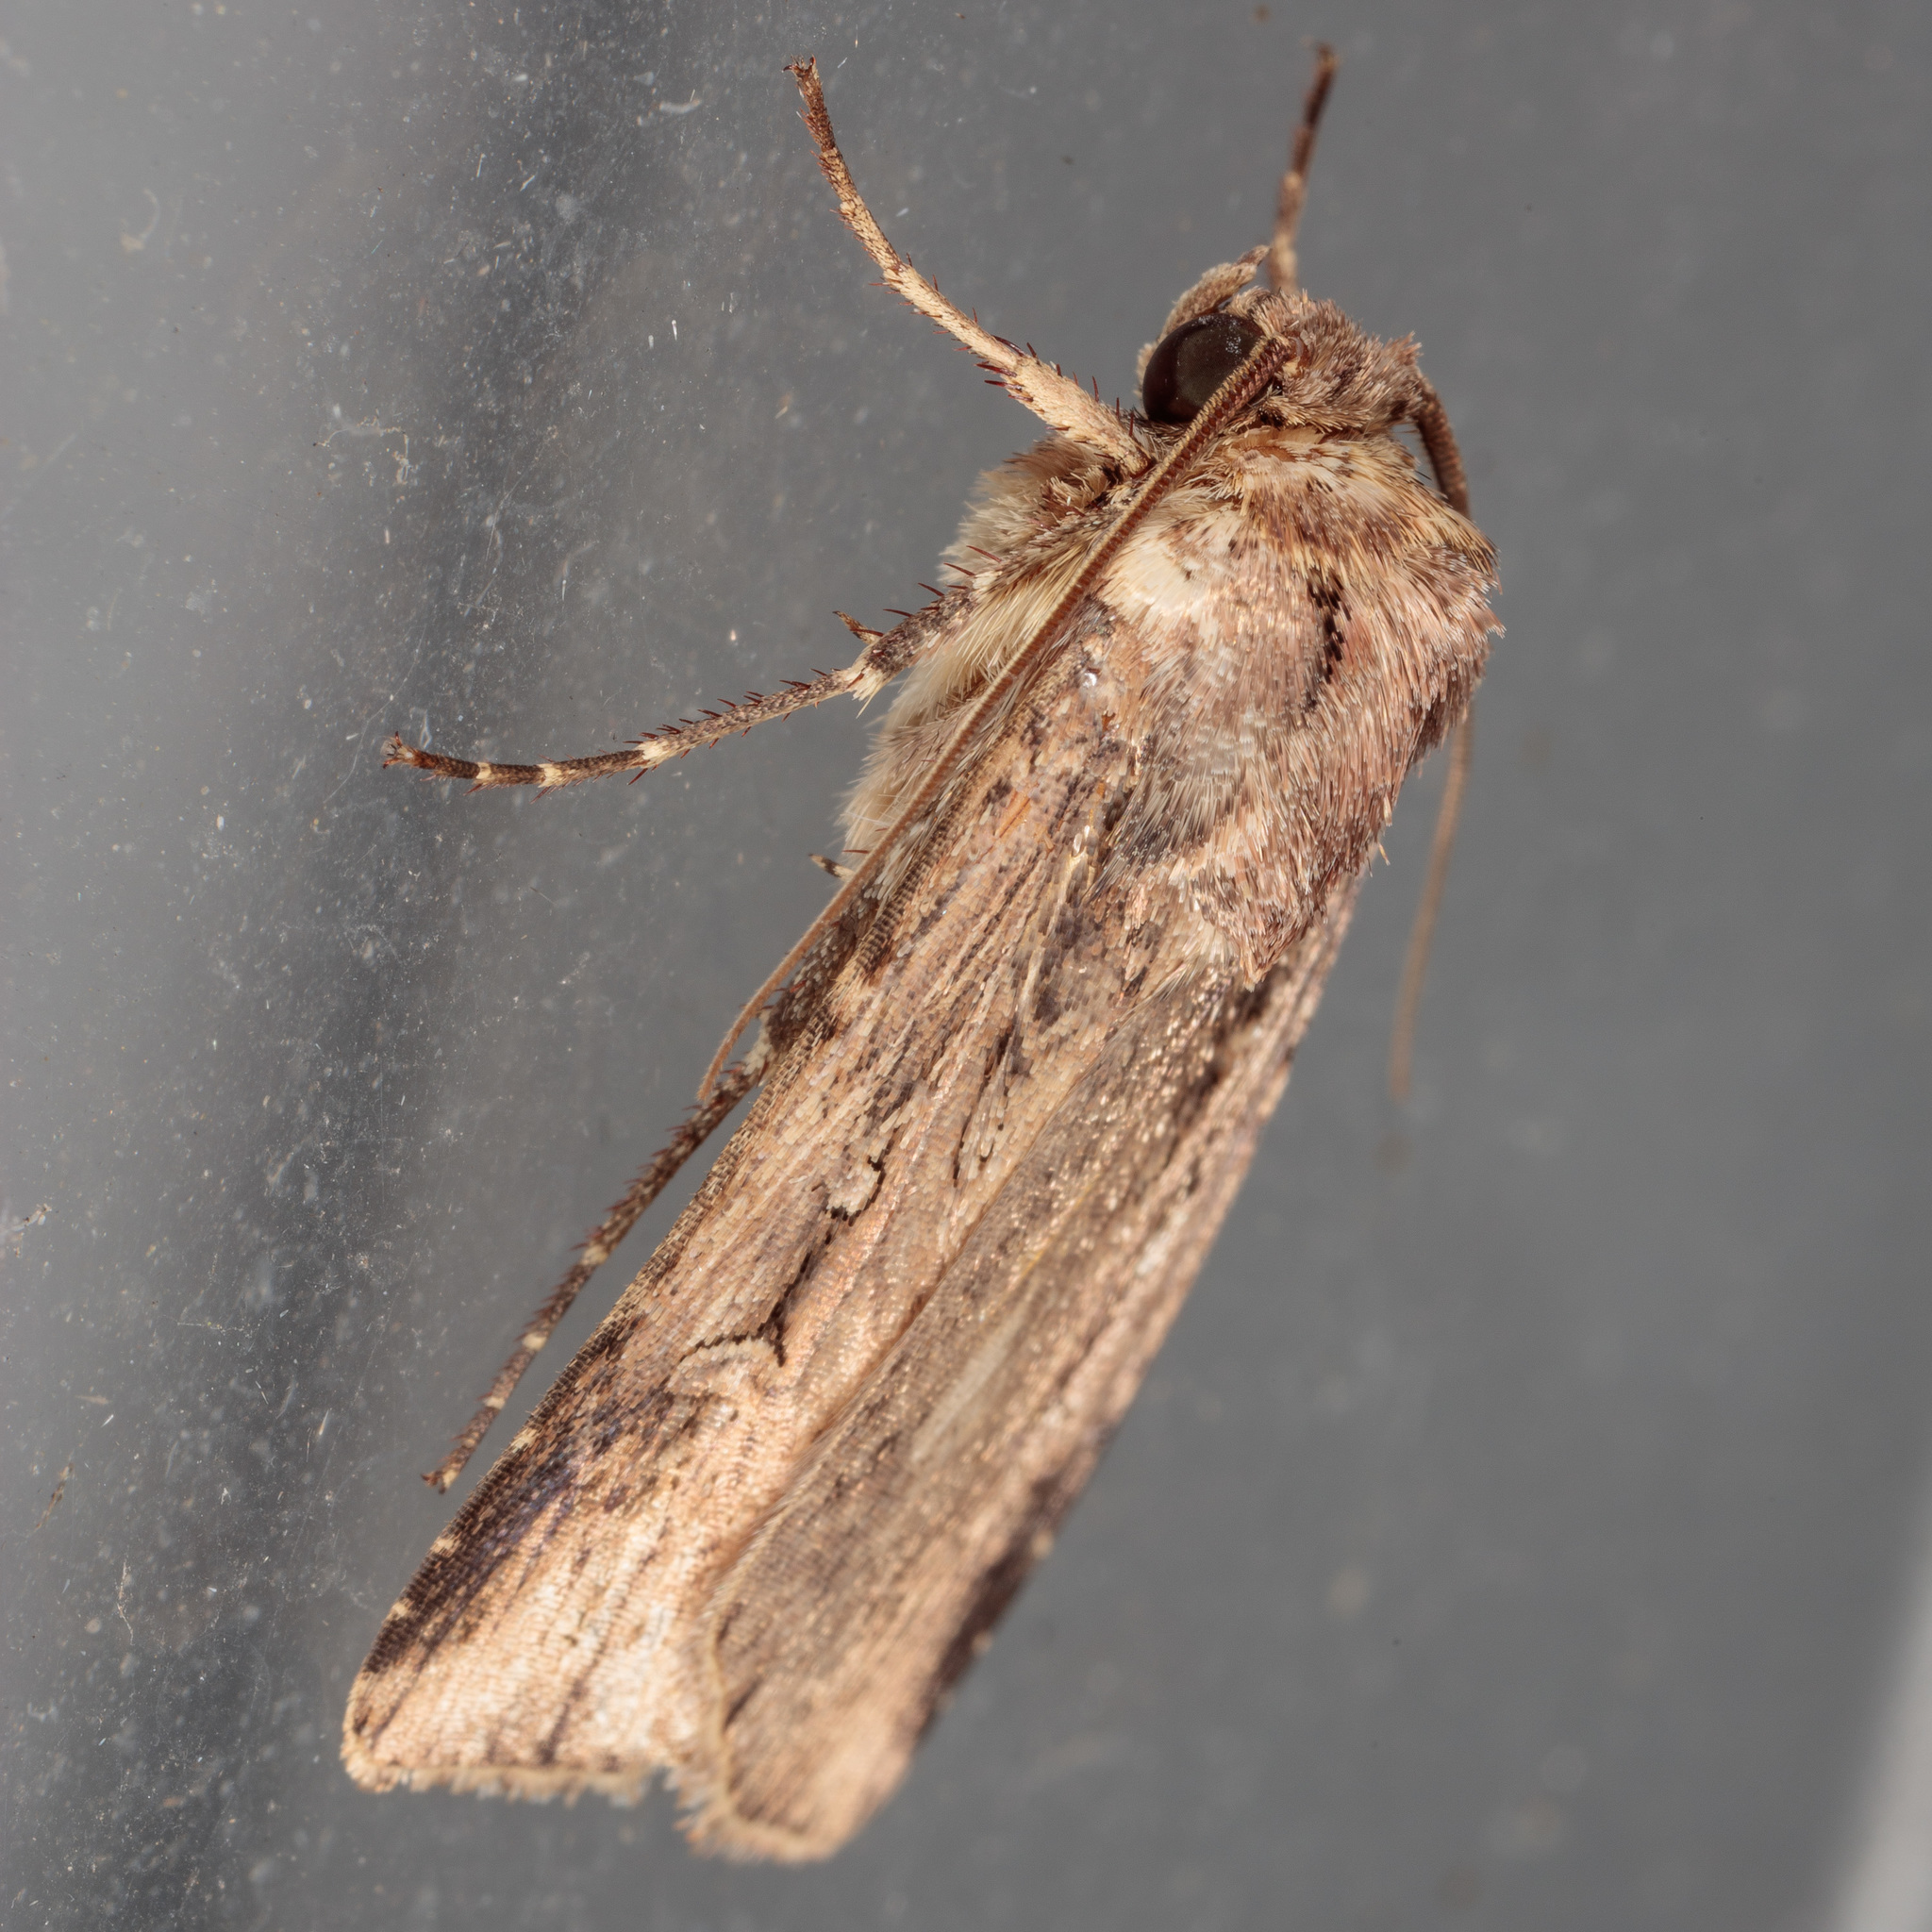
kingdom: Animalia
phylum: Arthropoda
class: Insecta
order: Lepidoptera
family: Noctuidae
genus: Feltia
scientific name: Feltia subterranea
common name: Granulate cutworm
